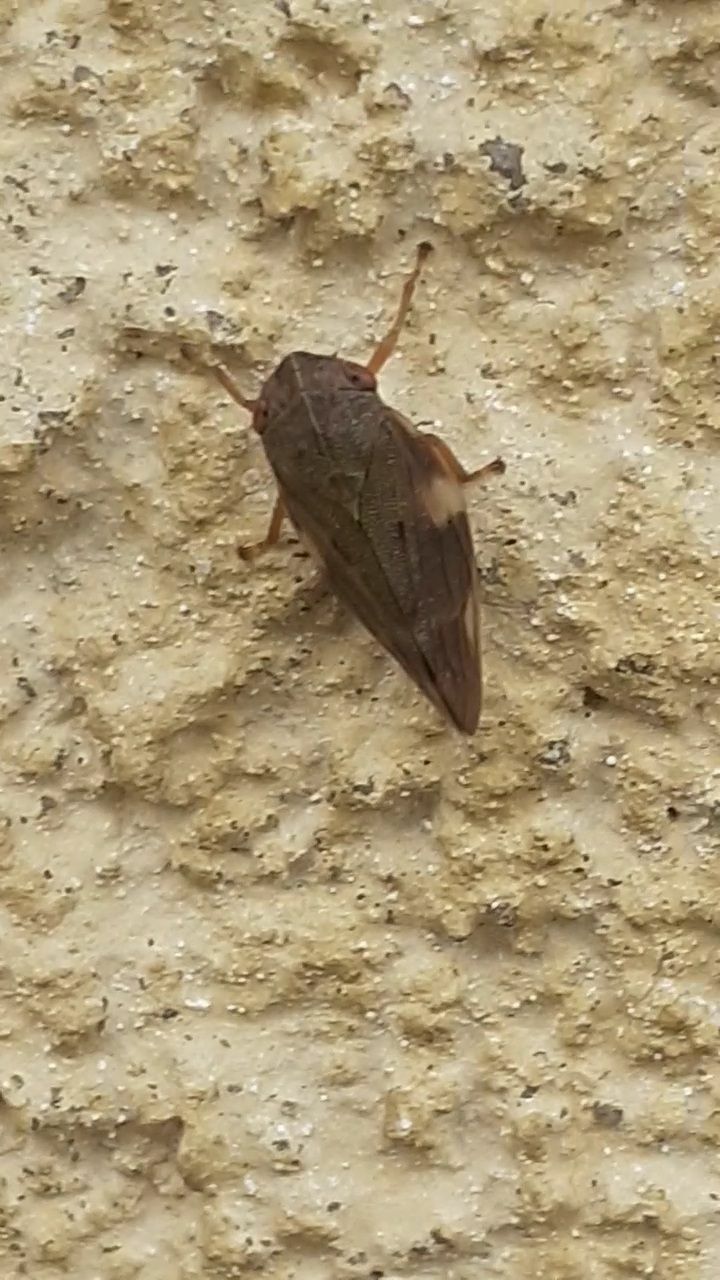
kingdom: Animalia
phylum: Arthropoda
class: Insecta
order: Hemiptera
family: Aphrophoridae
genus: Aphrophora
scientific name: Aphrophora alni
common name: European alder spittlebug
